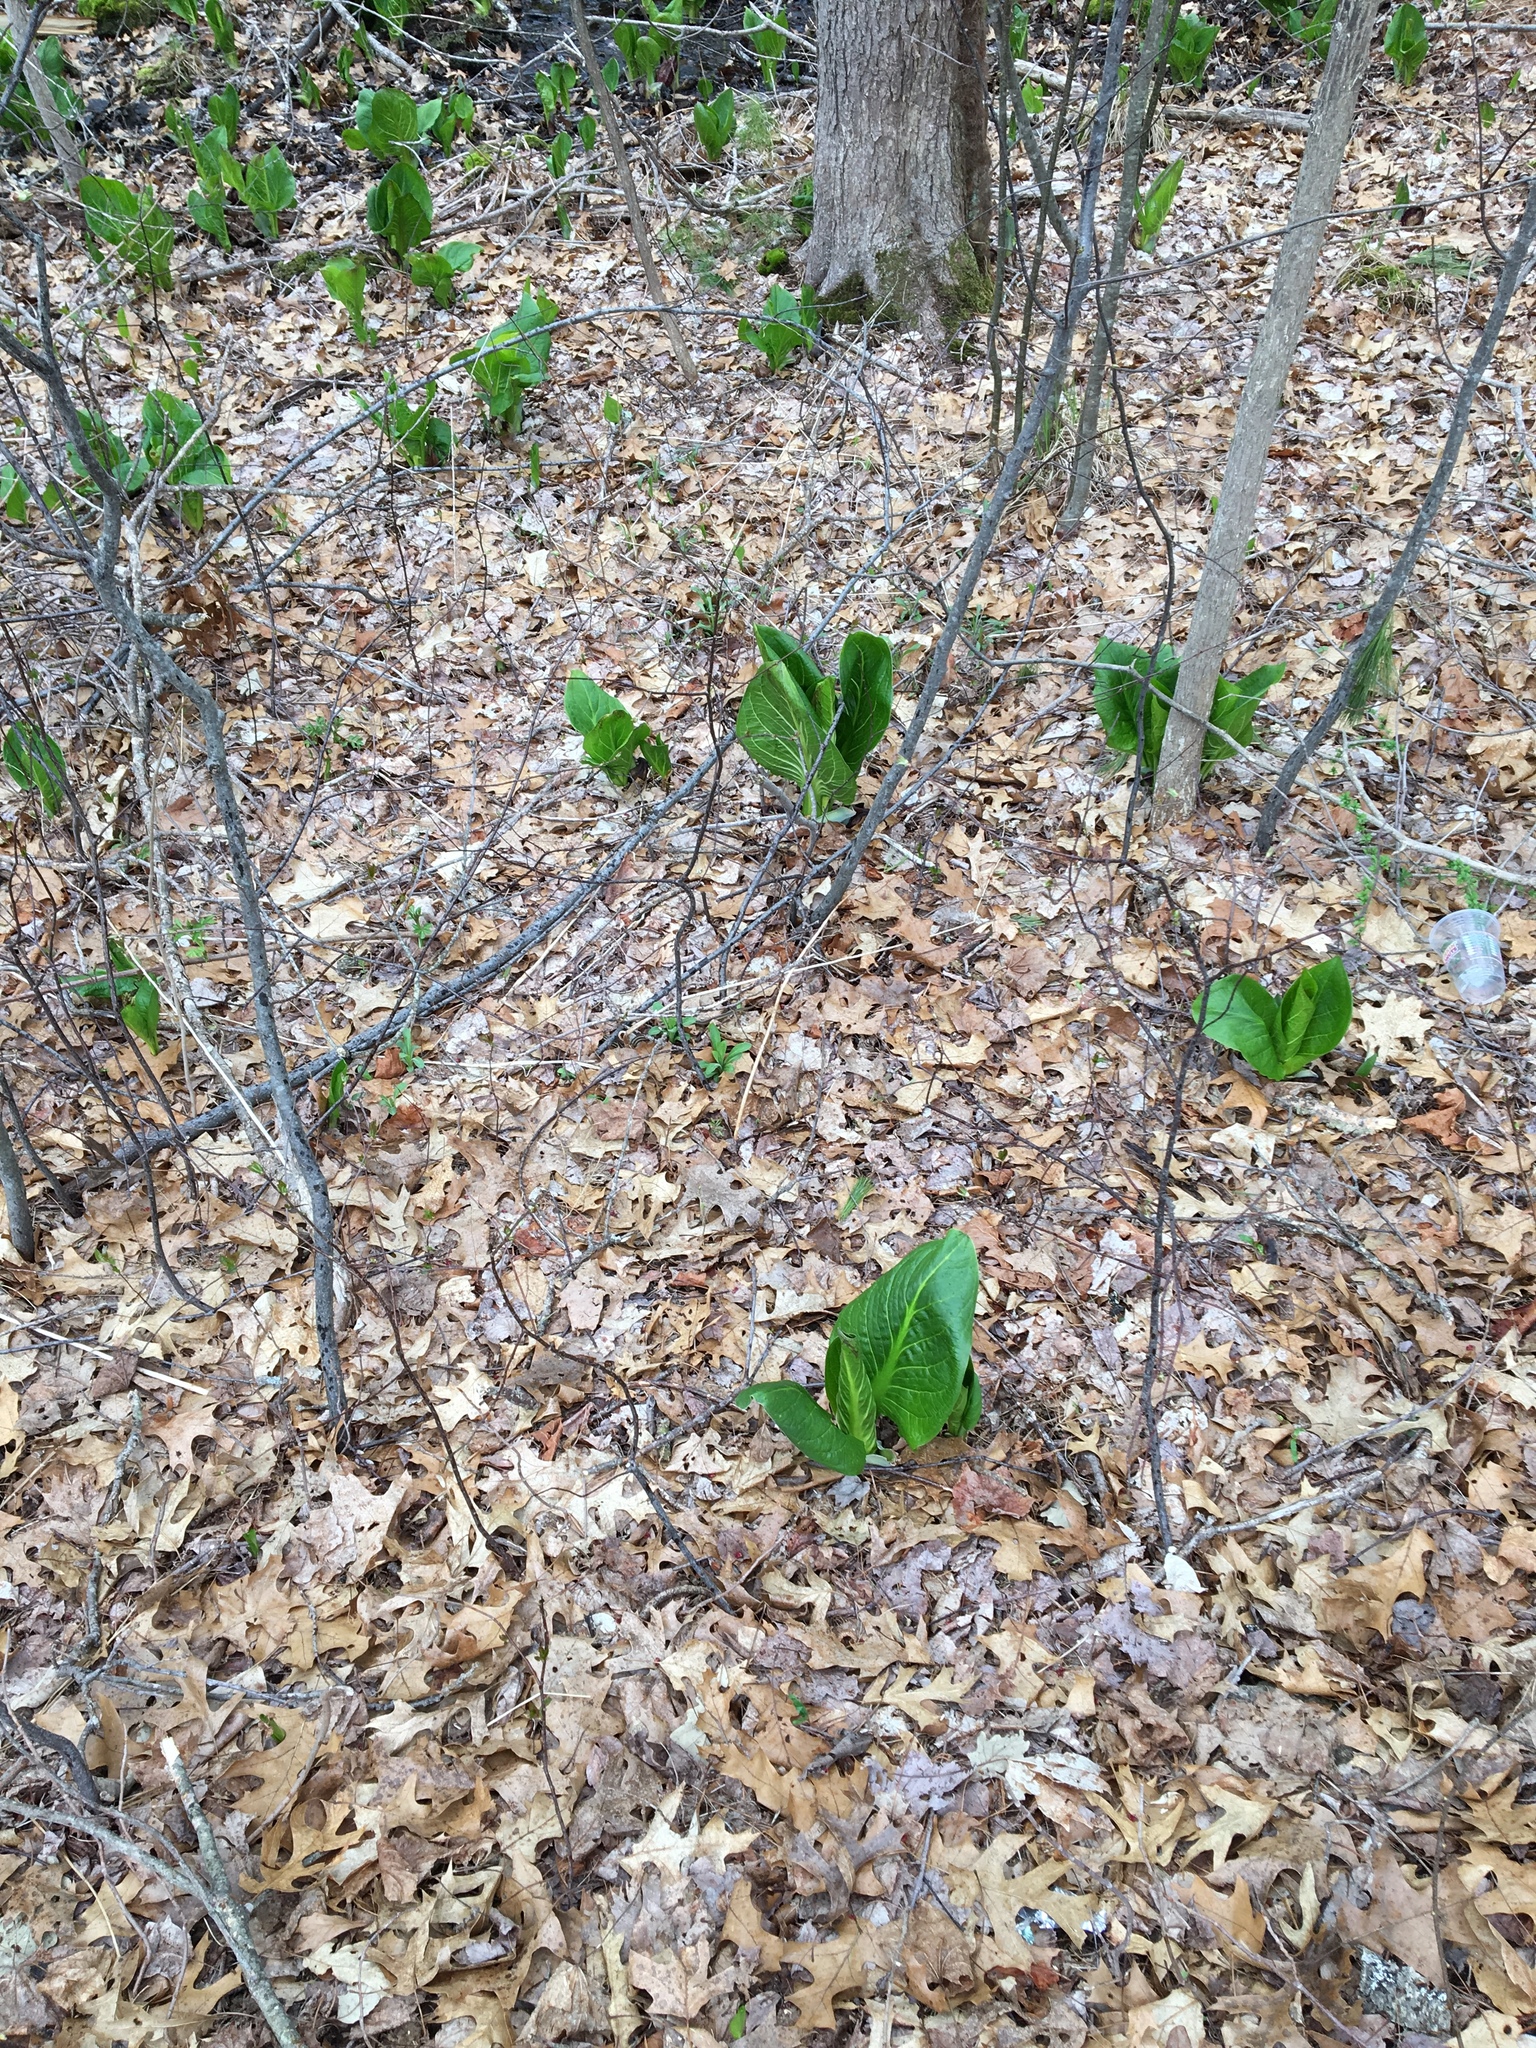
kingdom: Plantae
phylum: Tracheophyta
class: Liliopsida
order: Alismatales
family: Araceae
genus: Symplocarpus
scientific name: Symplocarpus foetidus
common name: Eastern skunk cabbage
